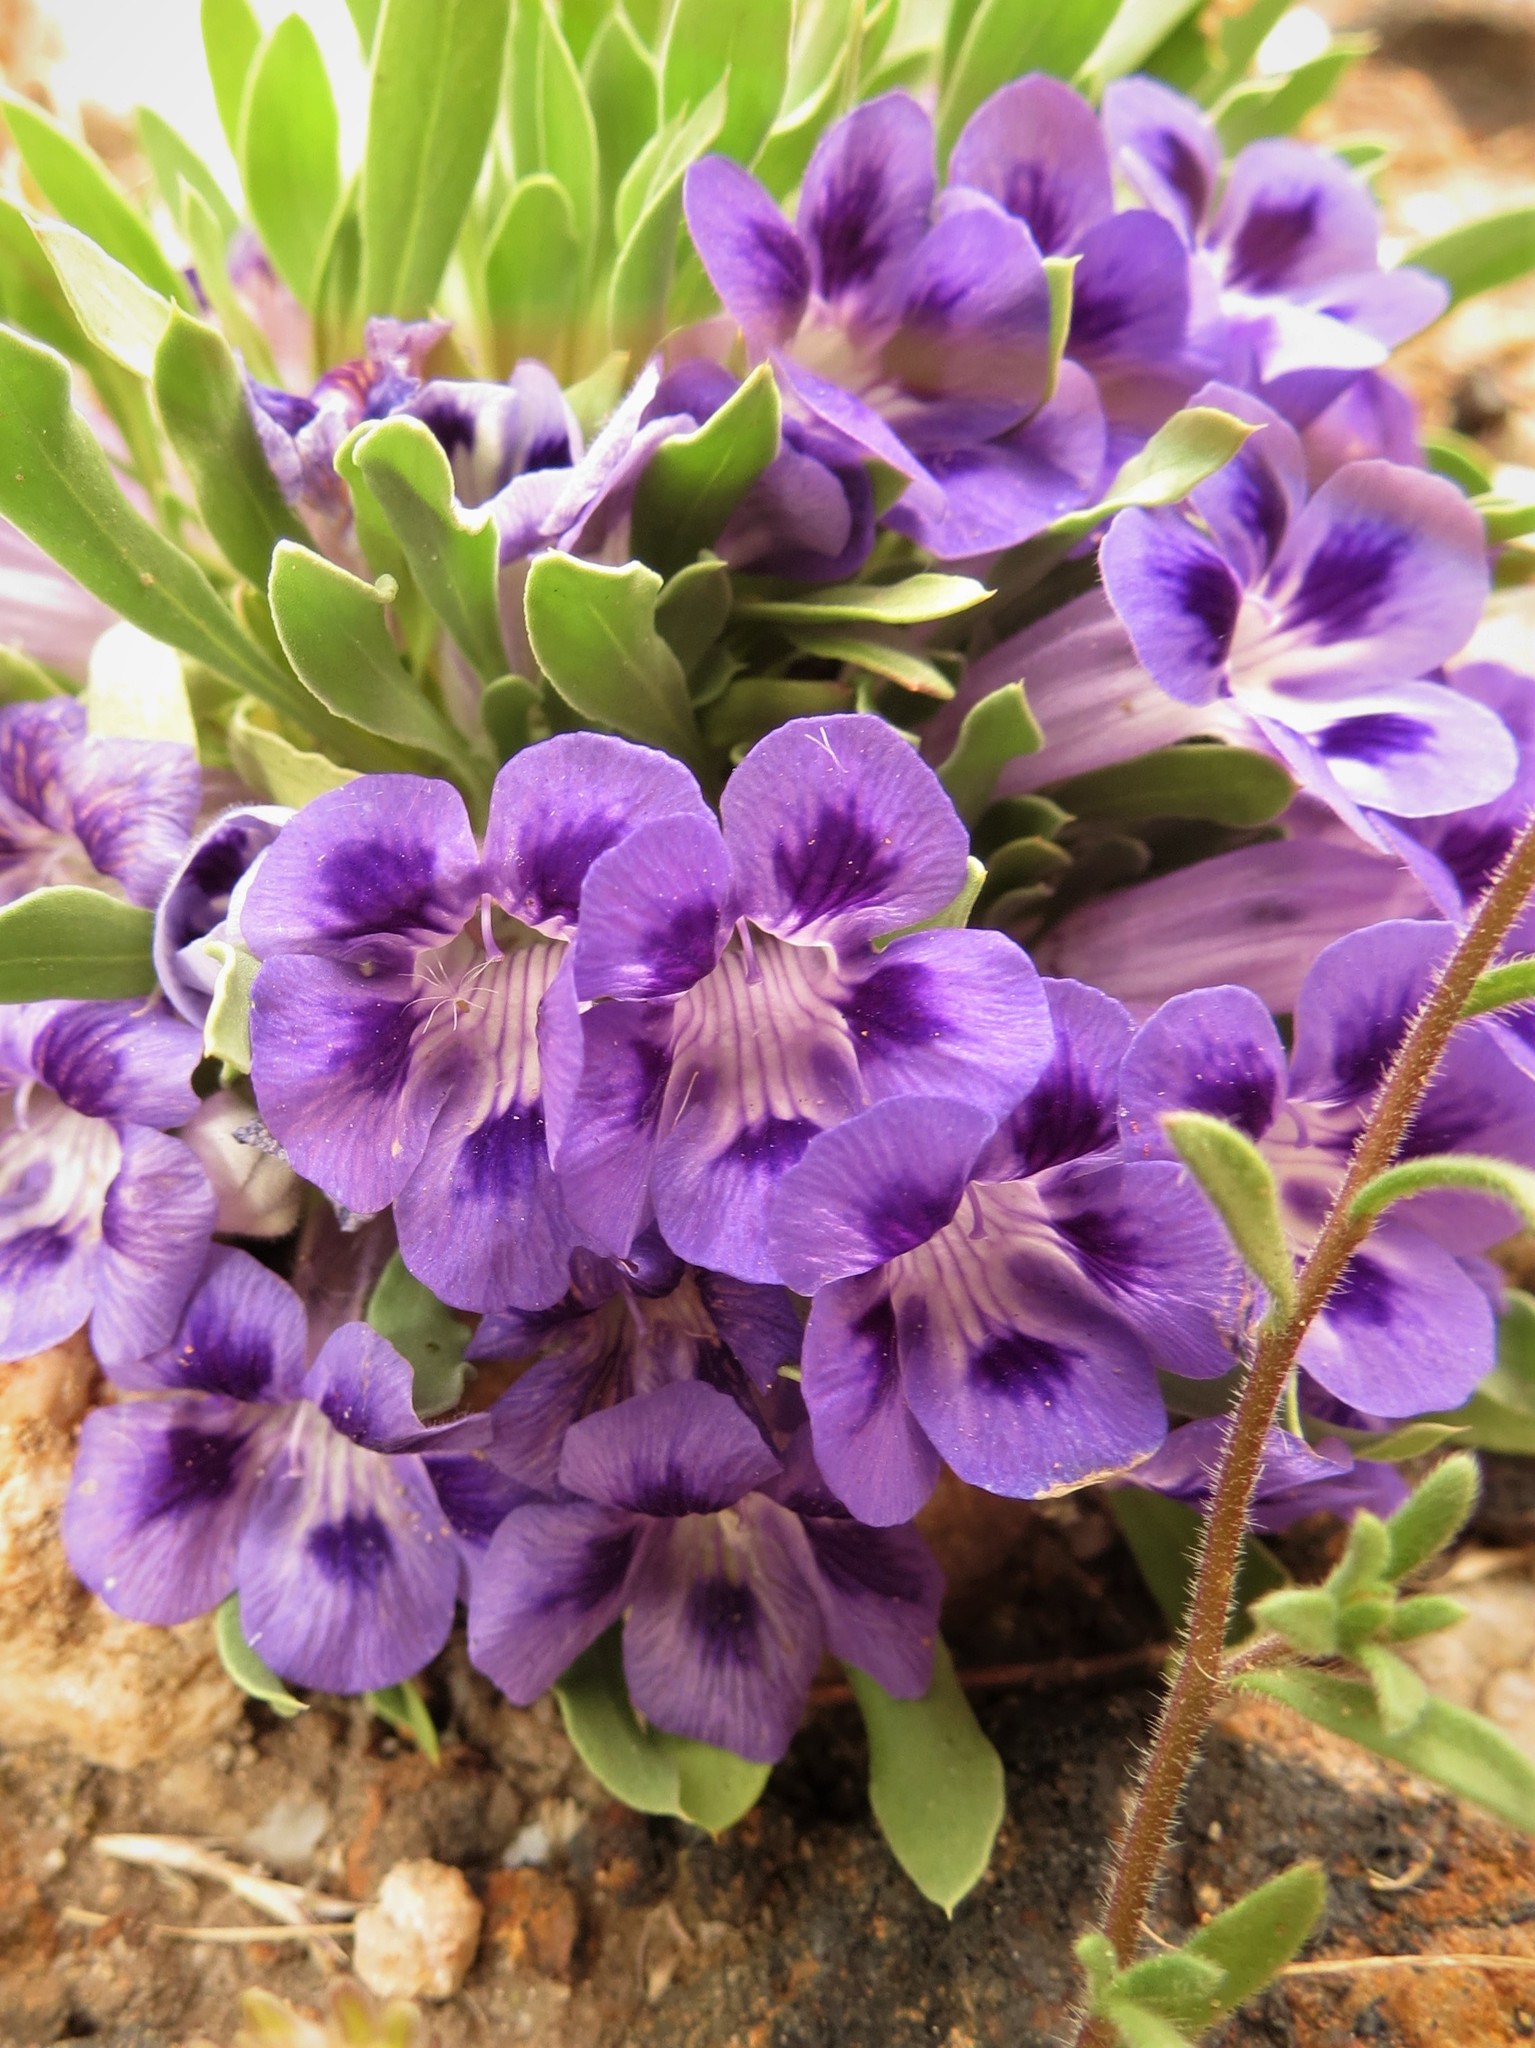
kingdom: Plantae
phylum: Tracheophyta
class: Magnoliopsida
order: Lamiales
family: Scrophulariaceae
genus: Aptosimum
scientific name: Aptosimum indivisum
